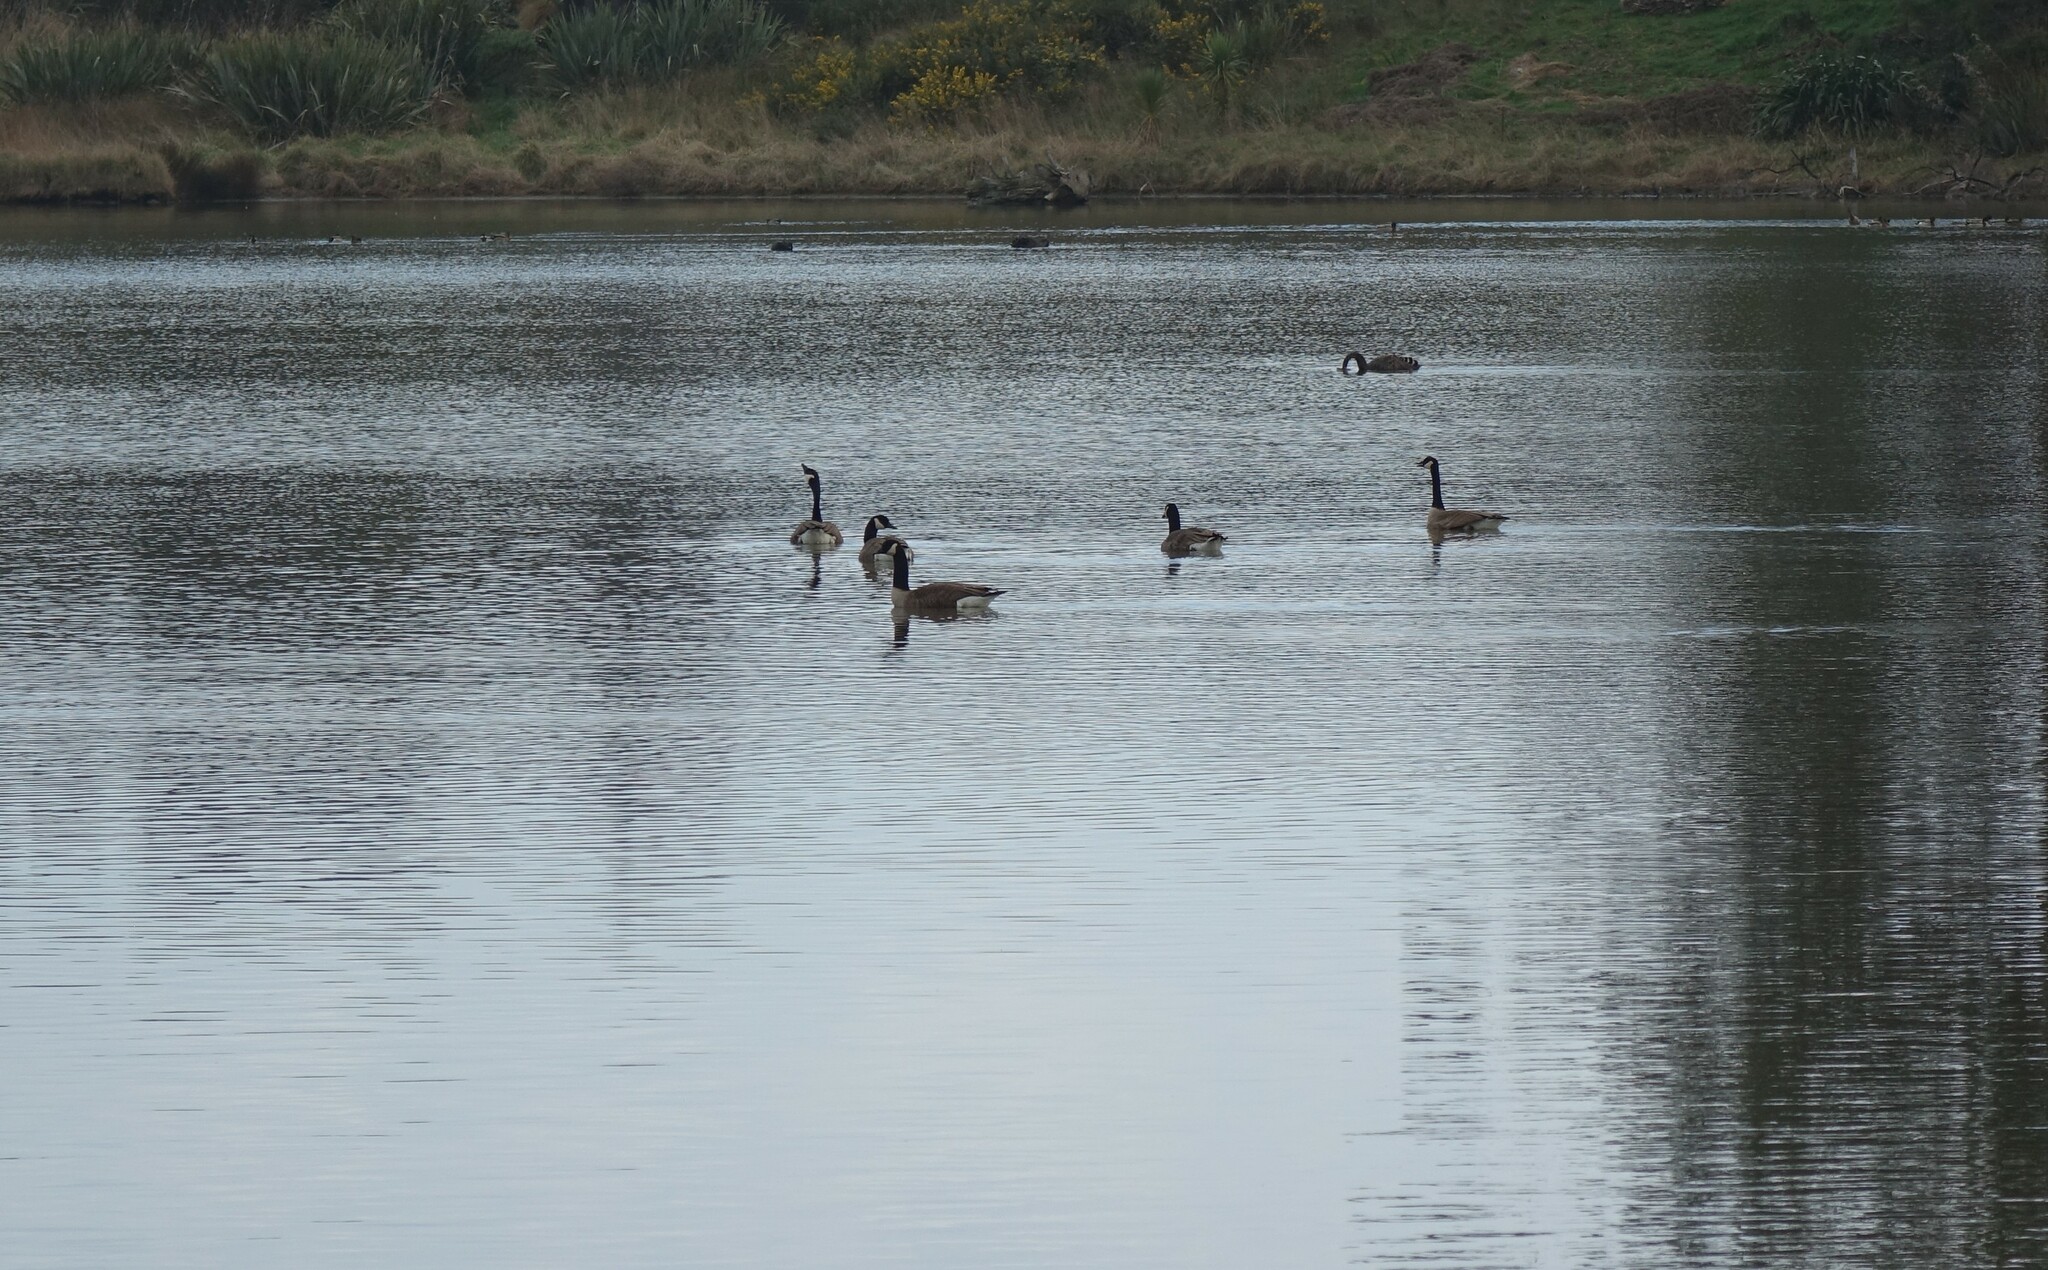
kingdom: Animalia
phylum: Chordata
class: Aves
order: Anseriformes
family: Anatidae
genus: Branta
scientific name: Branta canadensis
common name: Canada goose
